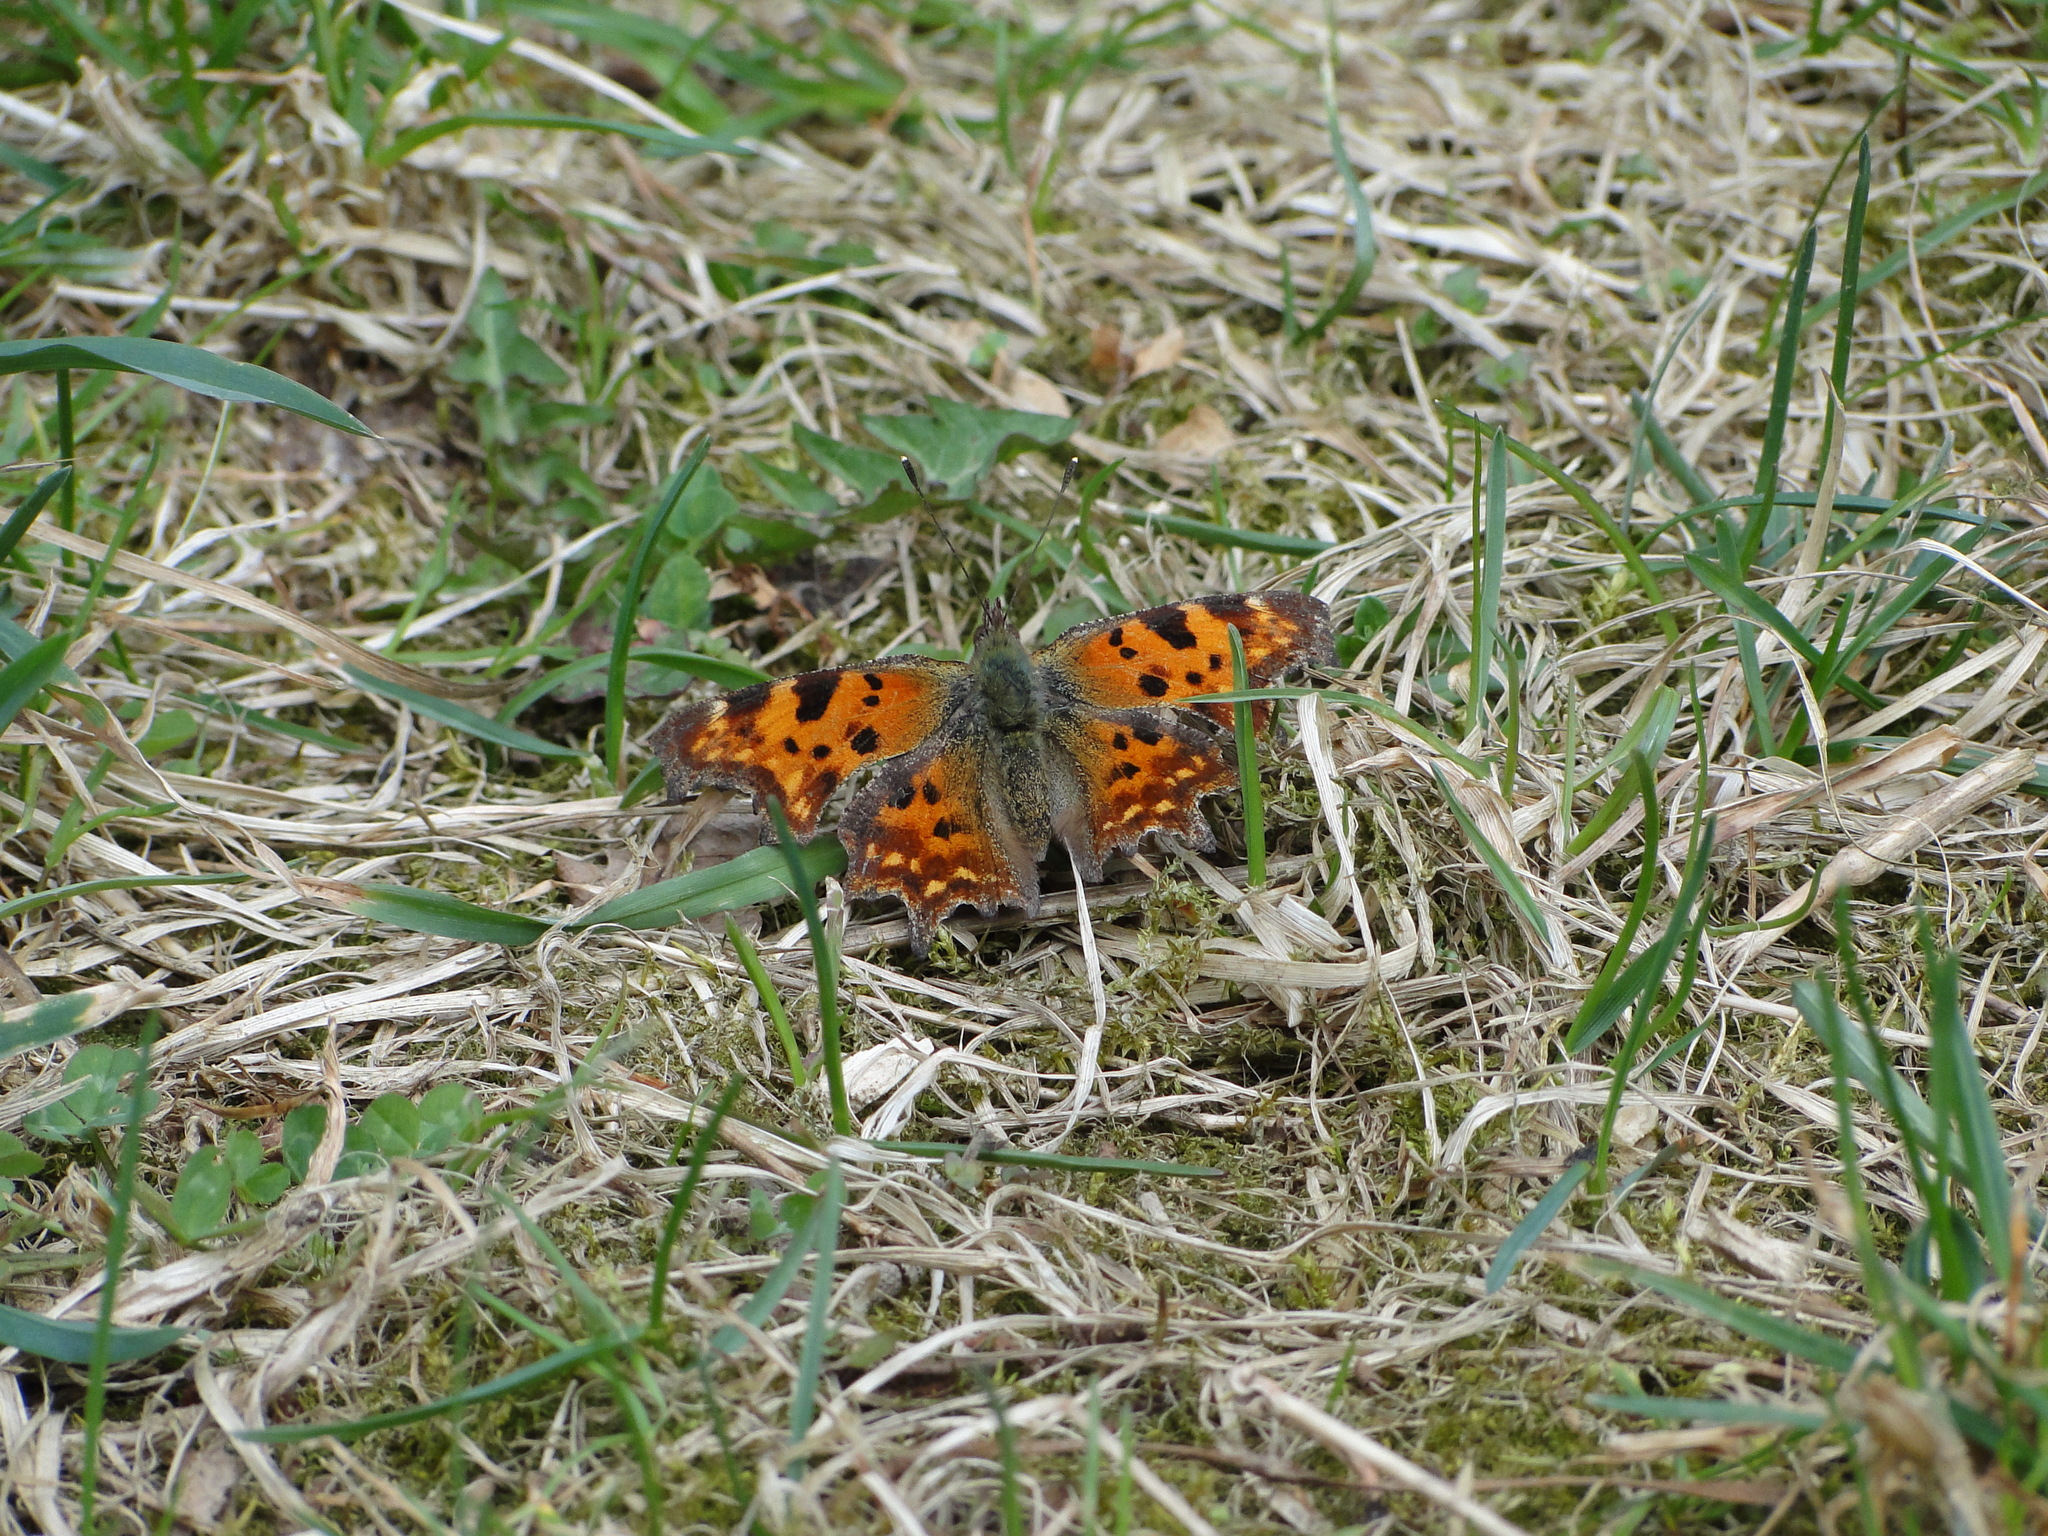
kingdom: Animalia
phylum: Arthropoda
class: Insecta
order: Lepidoptera
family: Nymphalidae
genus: Polygonia
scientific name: Polygonia c-album
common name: Comma
